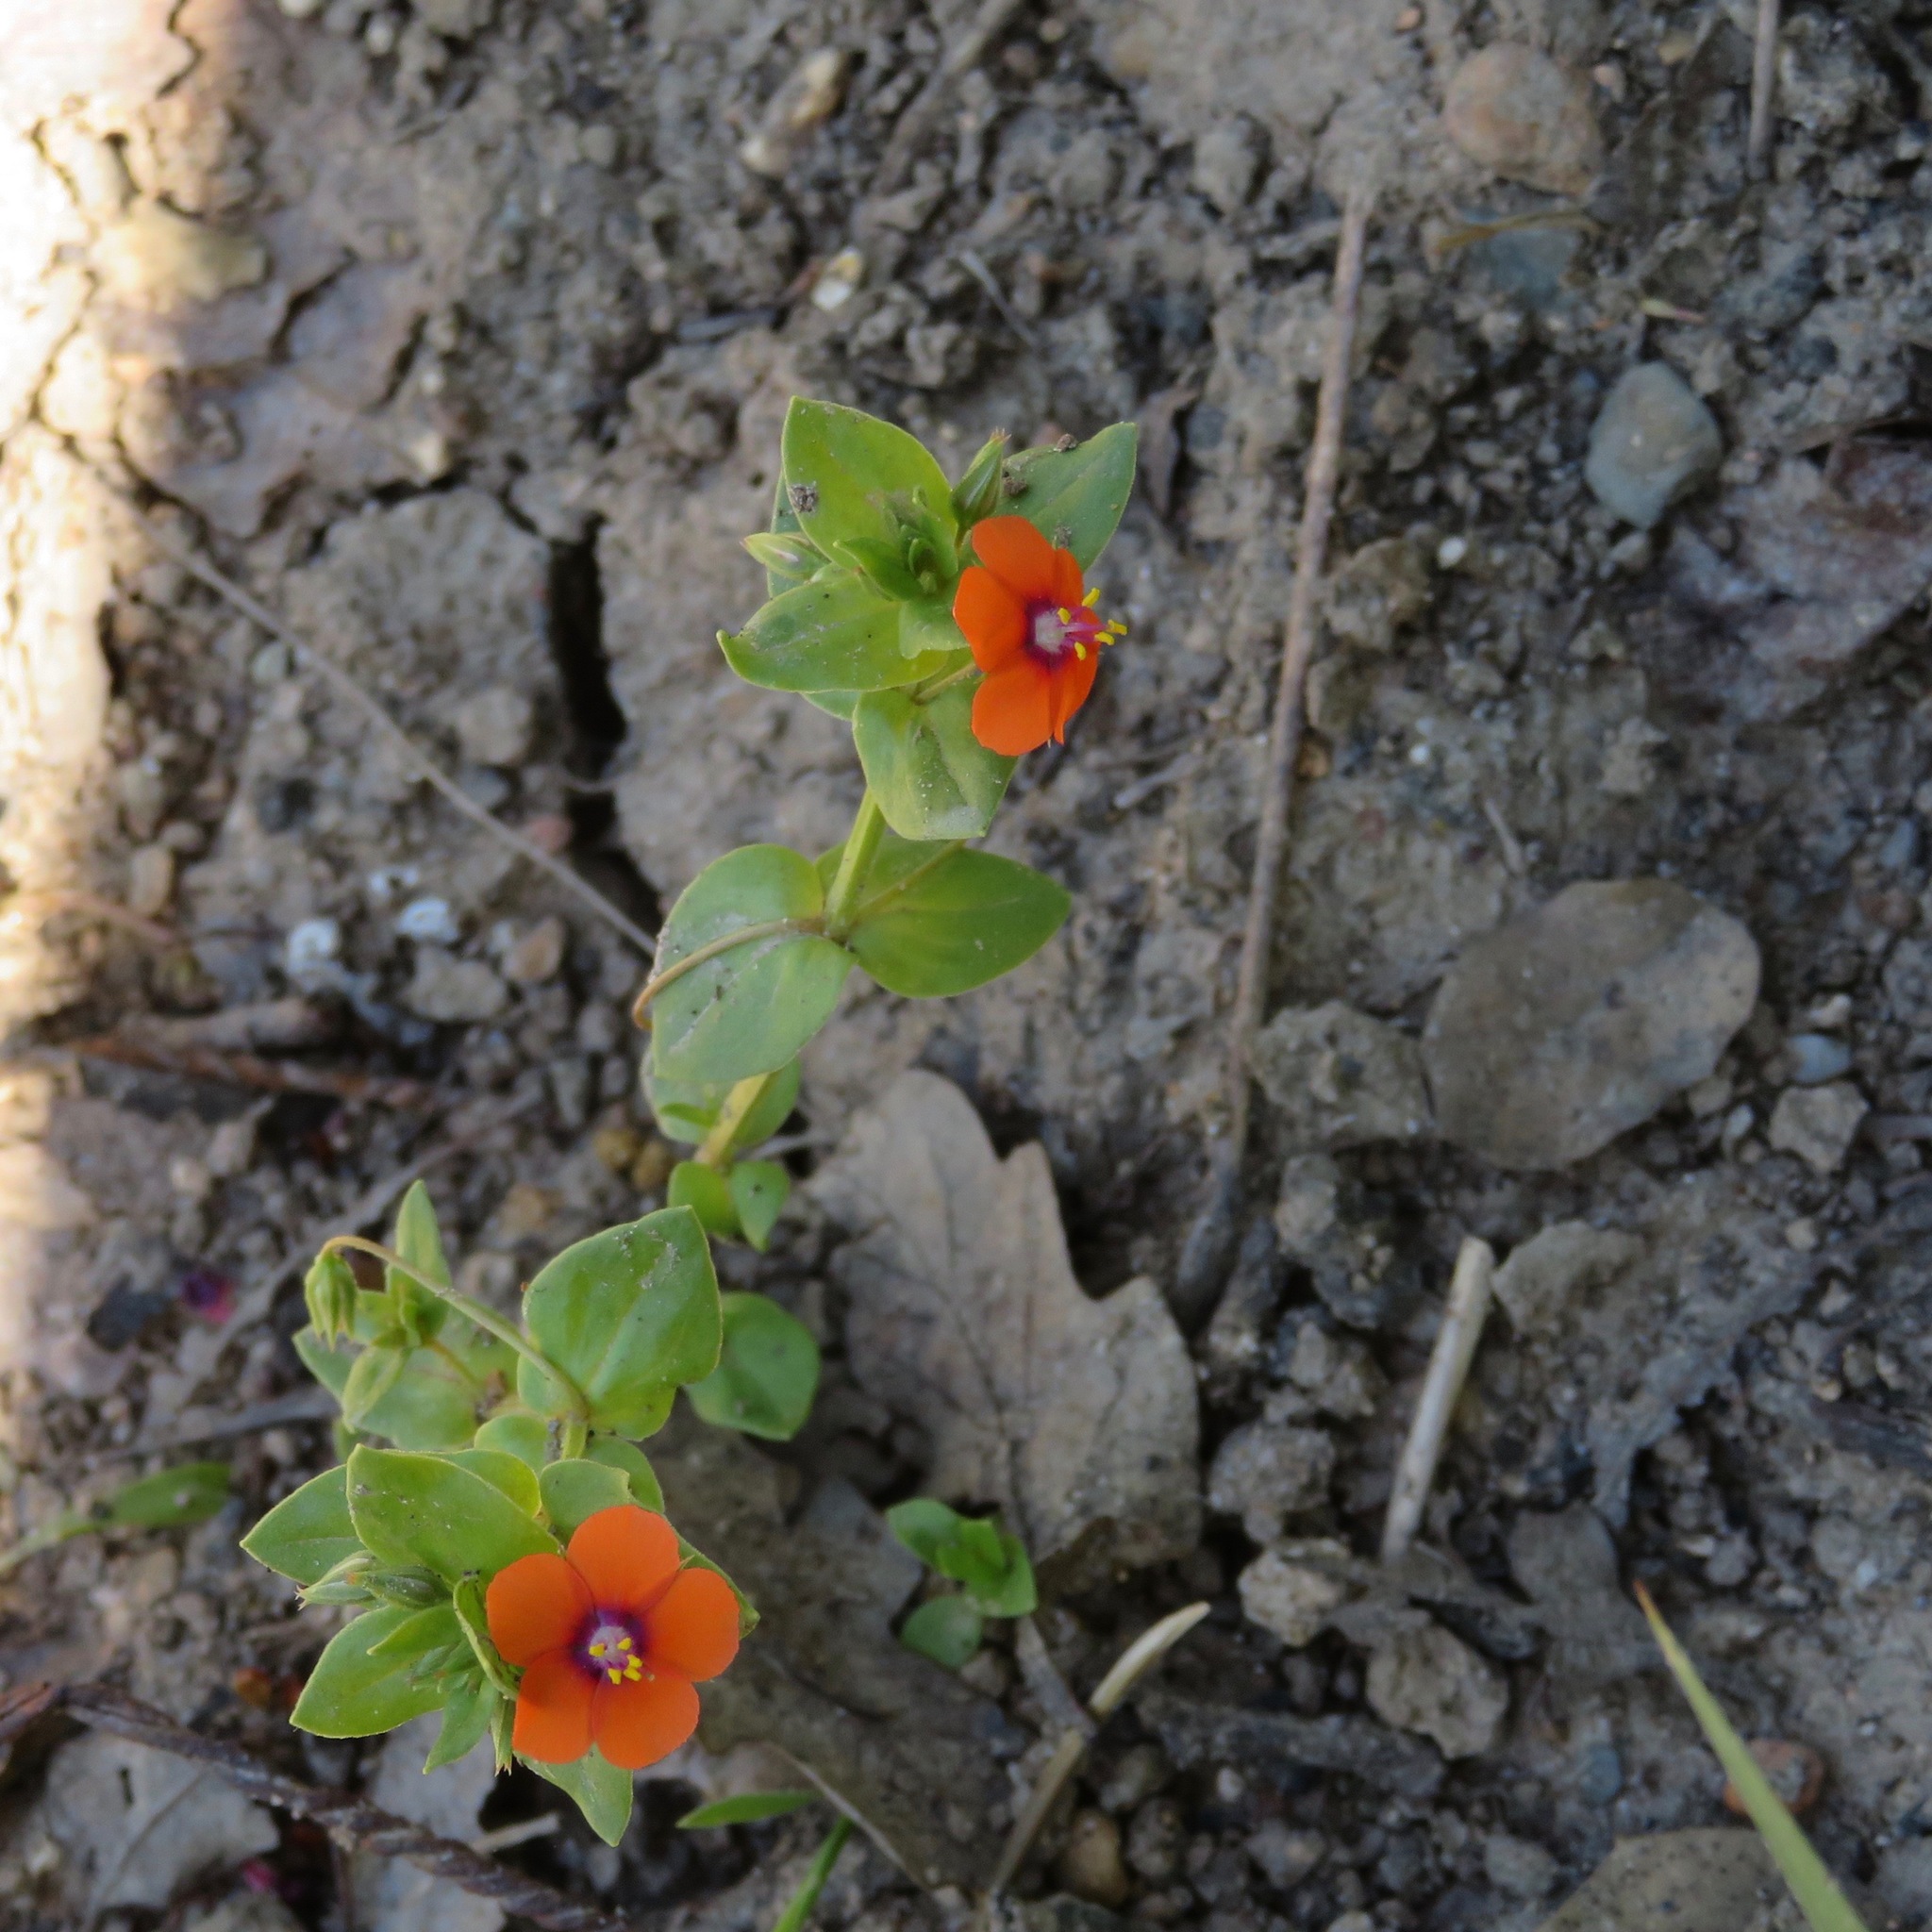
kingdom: Plantae
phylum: Tracheophyta
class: Magnoliopsida
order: Ericales
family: Primulaceae
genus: Lysimachia
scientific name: Lysimachia arvensis
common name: Scarlet pimpernel
